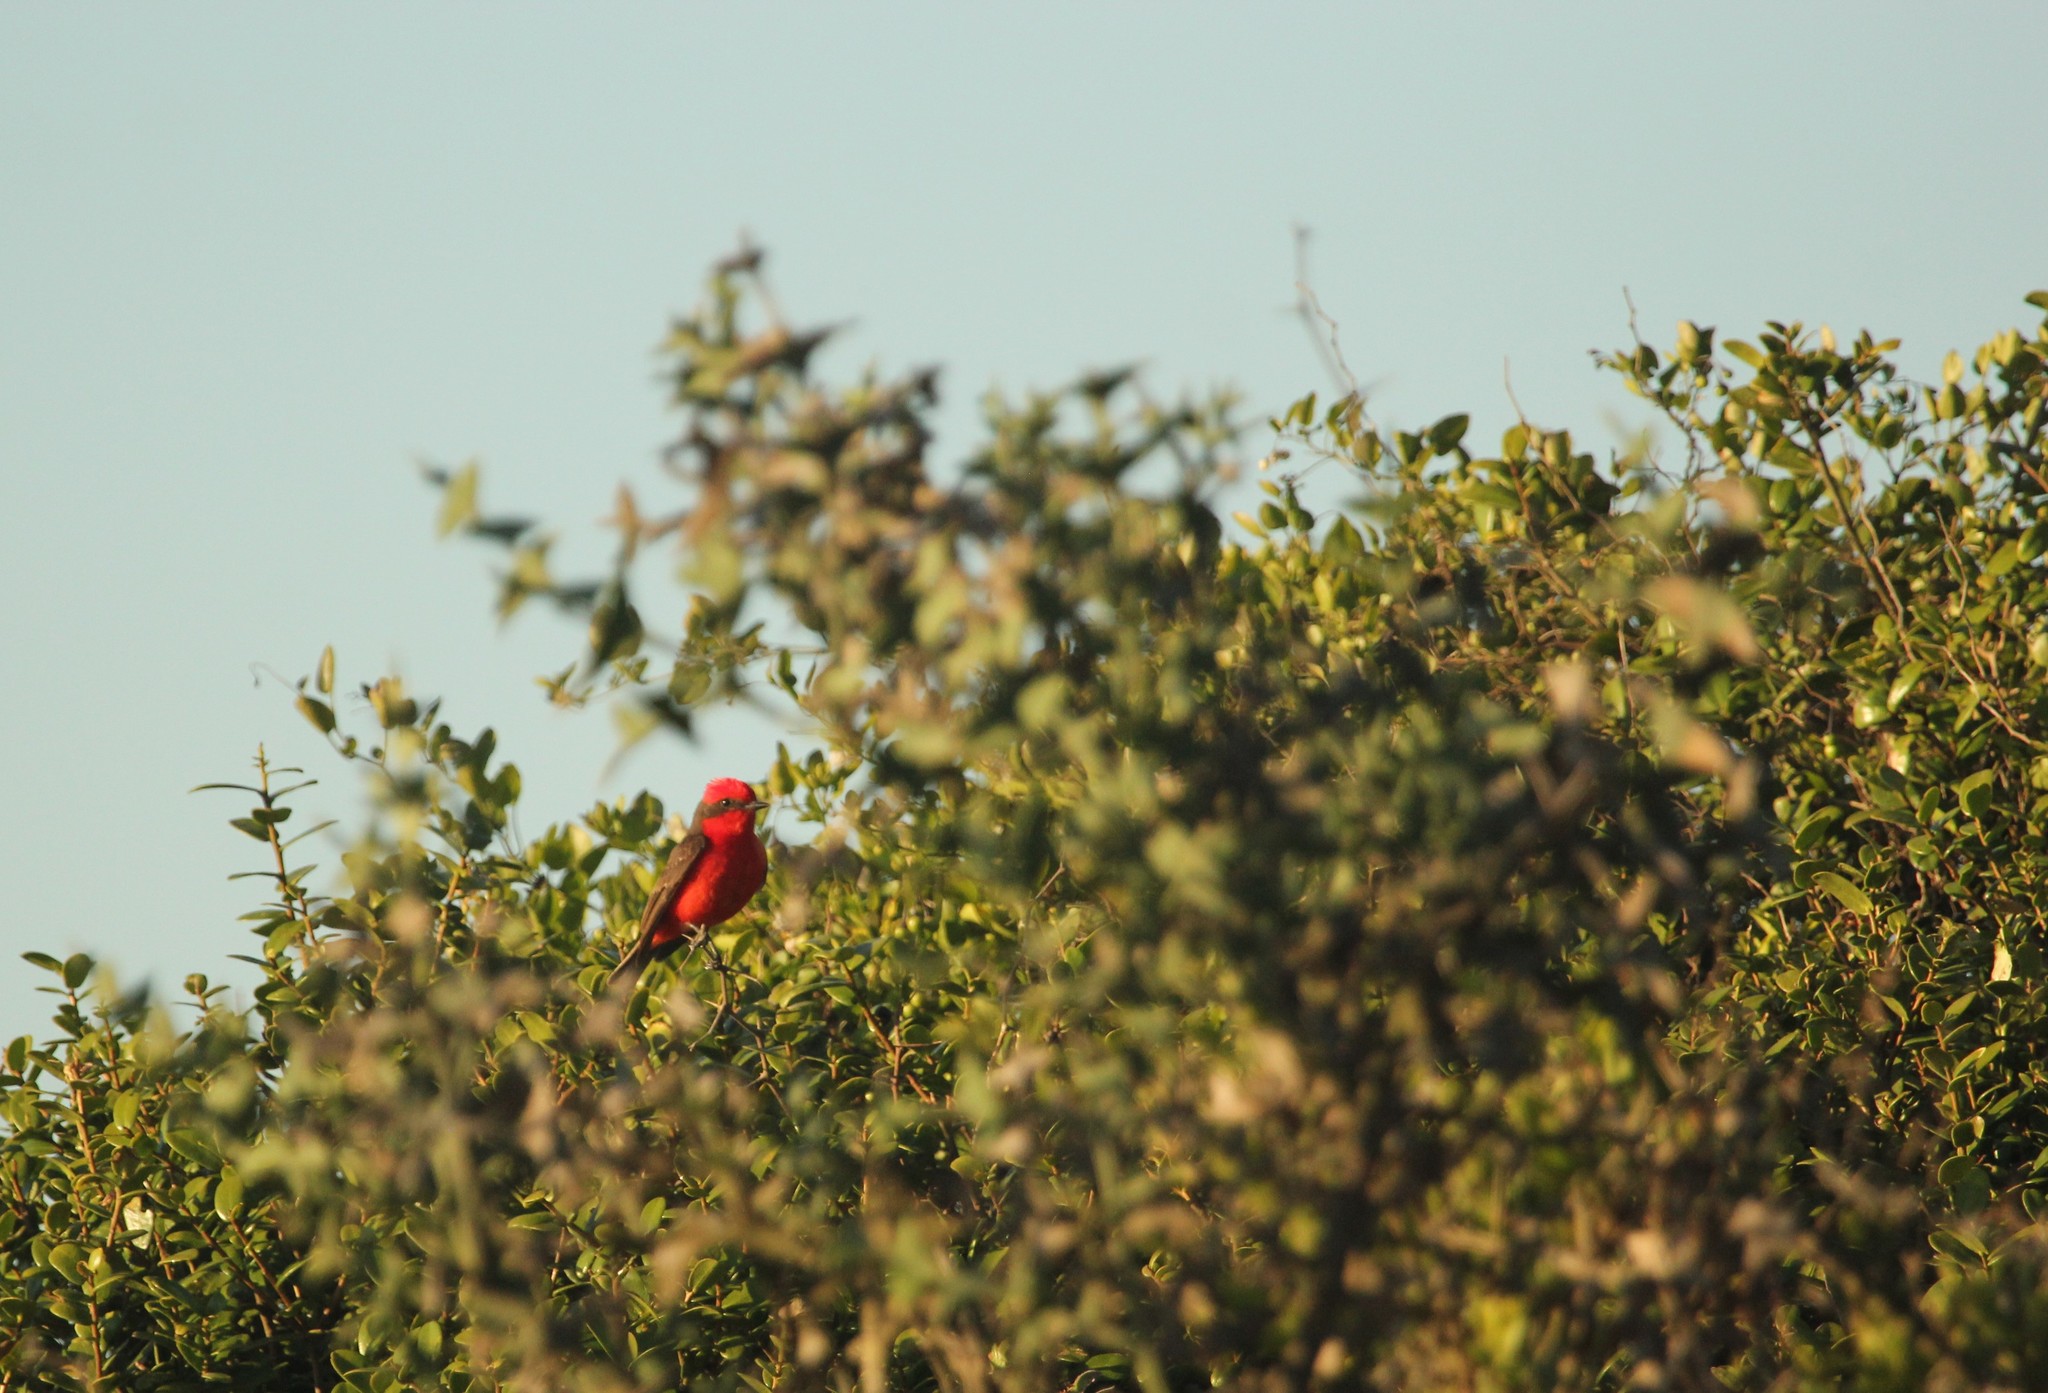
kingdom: Animalia
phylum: Chordata
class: Aves
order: Passeriformes
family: Tyrannidae
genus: Pyrocephalus
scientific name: Pyrocephalus rubinus
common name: Vermilion flycatcher
